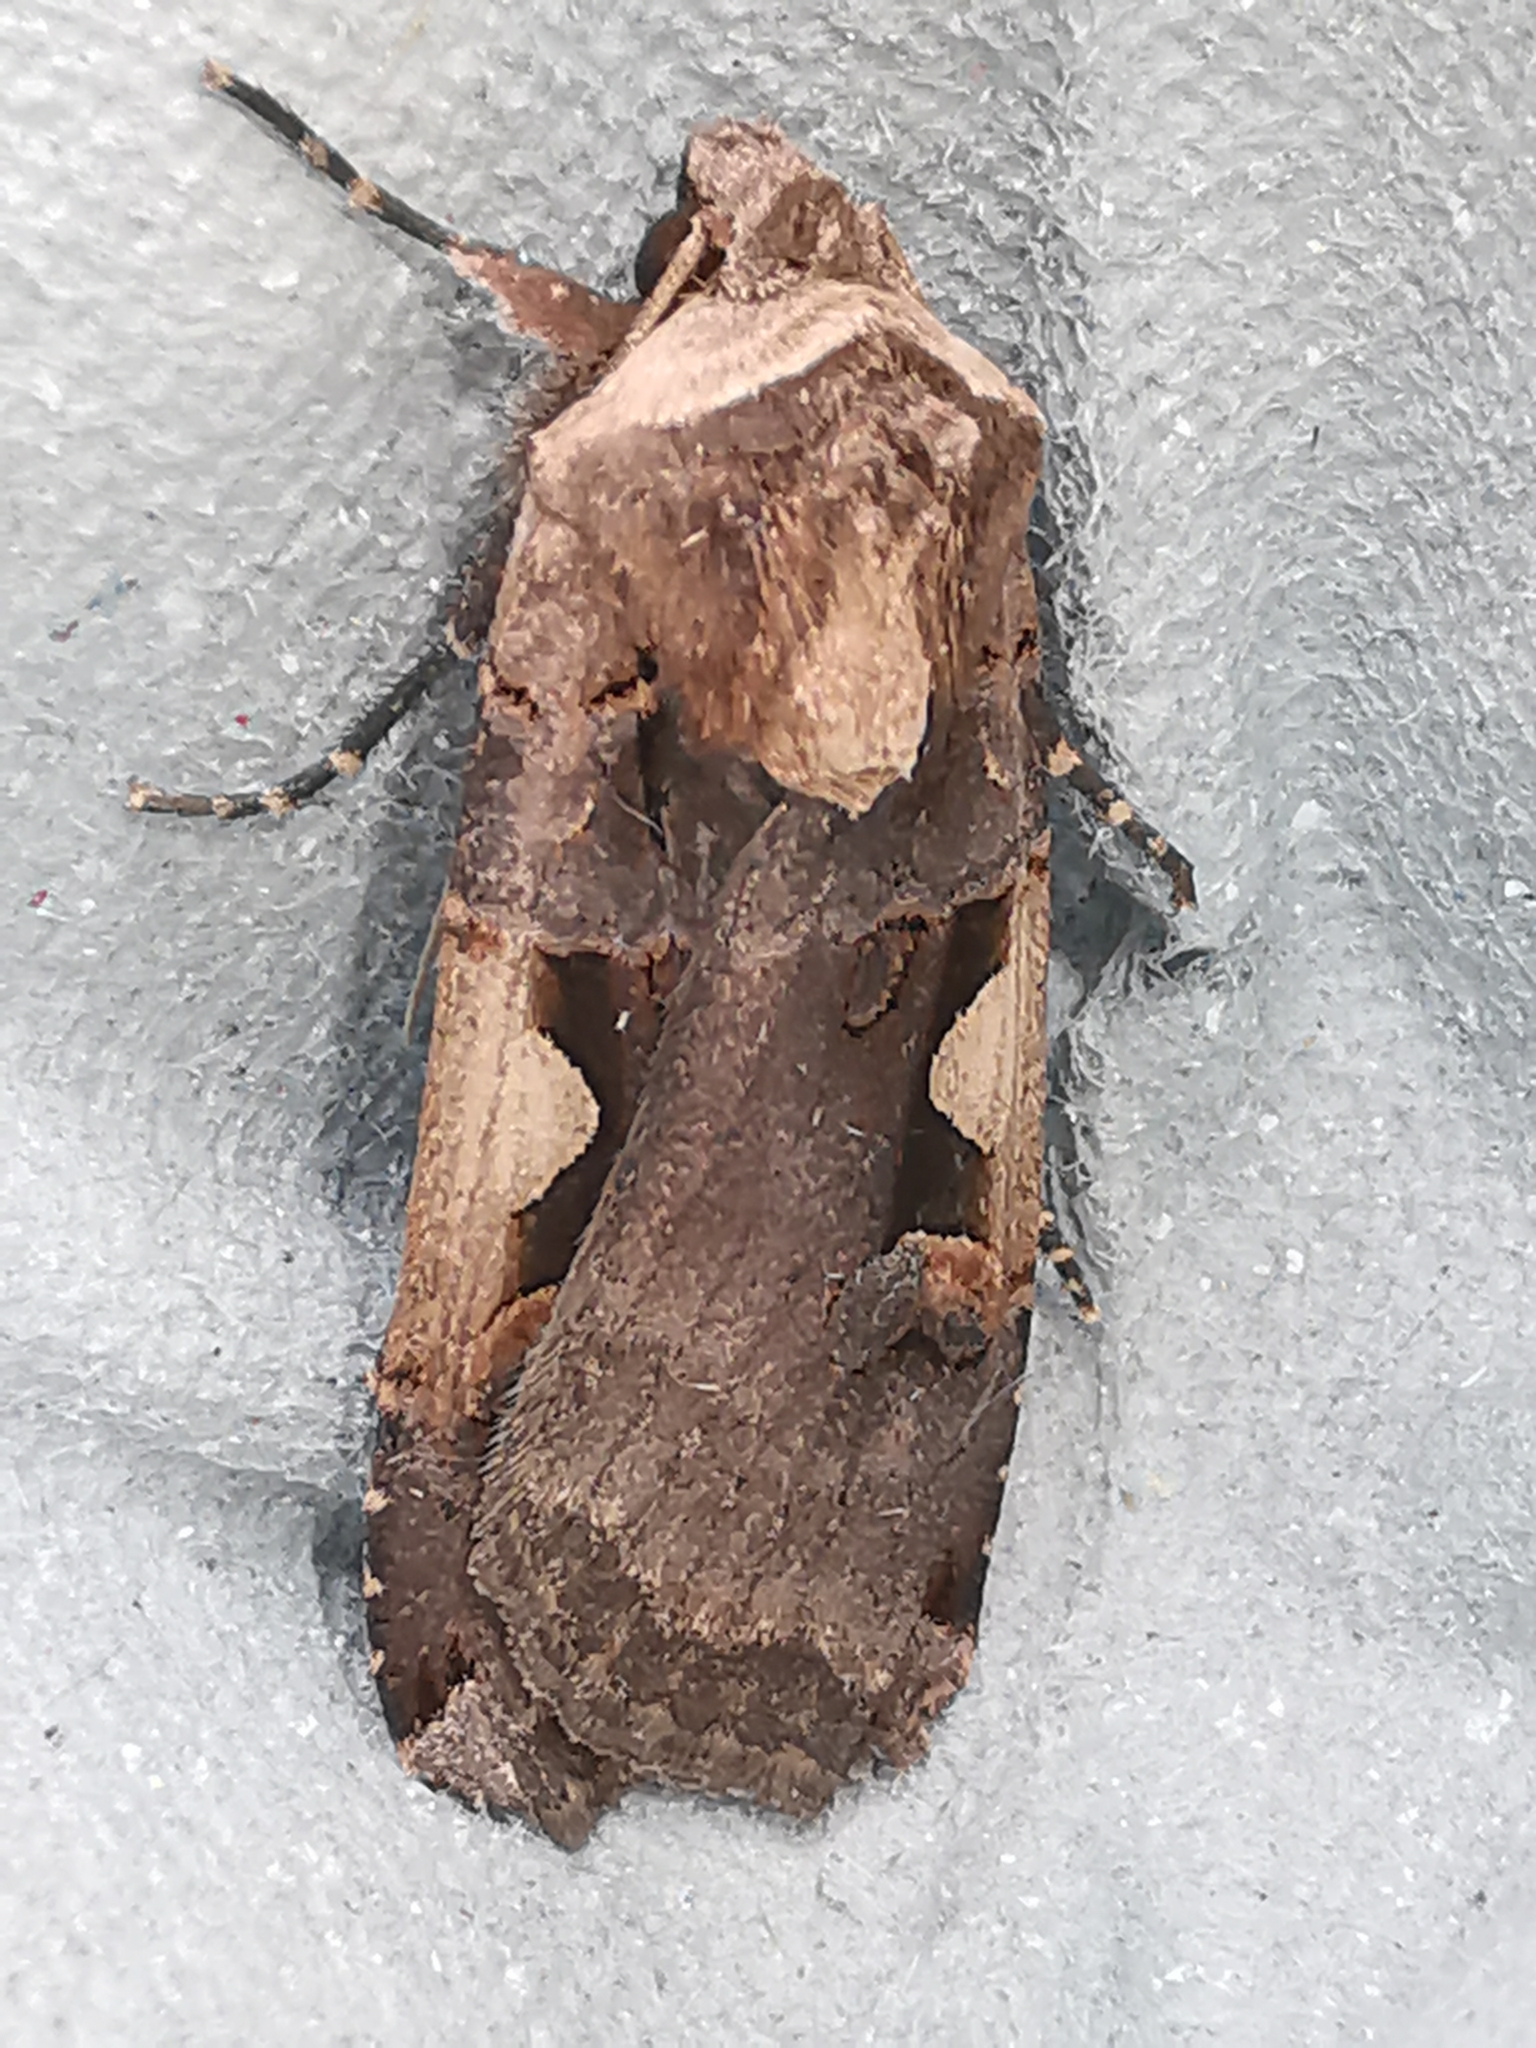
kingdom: Animalia
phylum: Arthropoda
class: Insecta
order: Lepidoptera
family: Noctuidae
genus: Xestia
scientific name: Xestia c-nigrum
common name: Setaceous hebrew character
